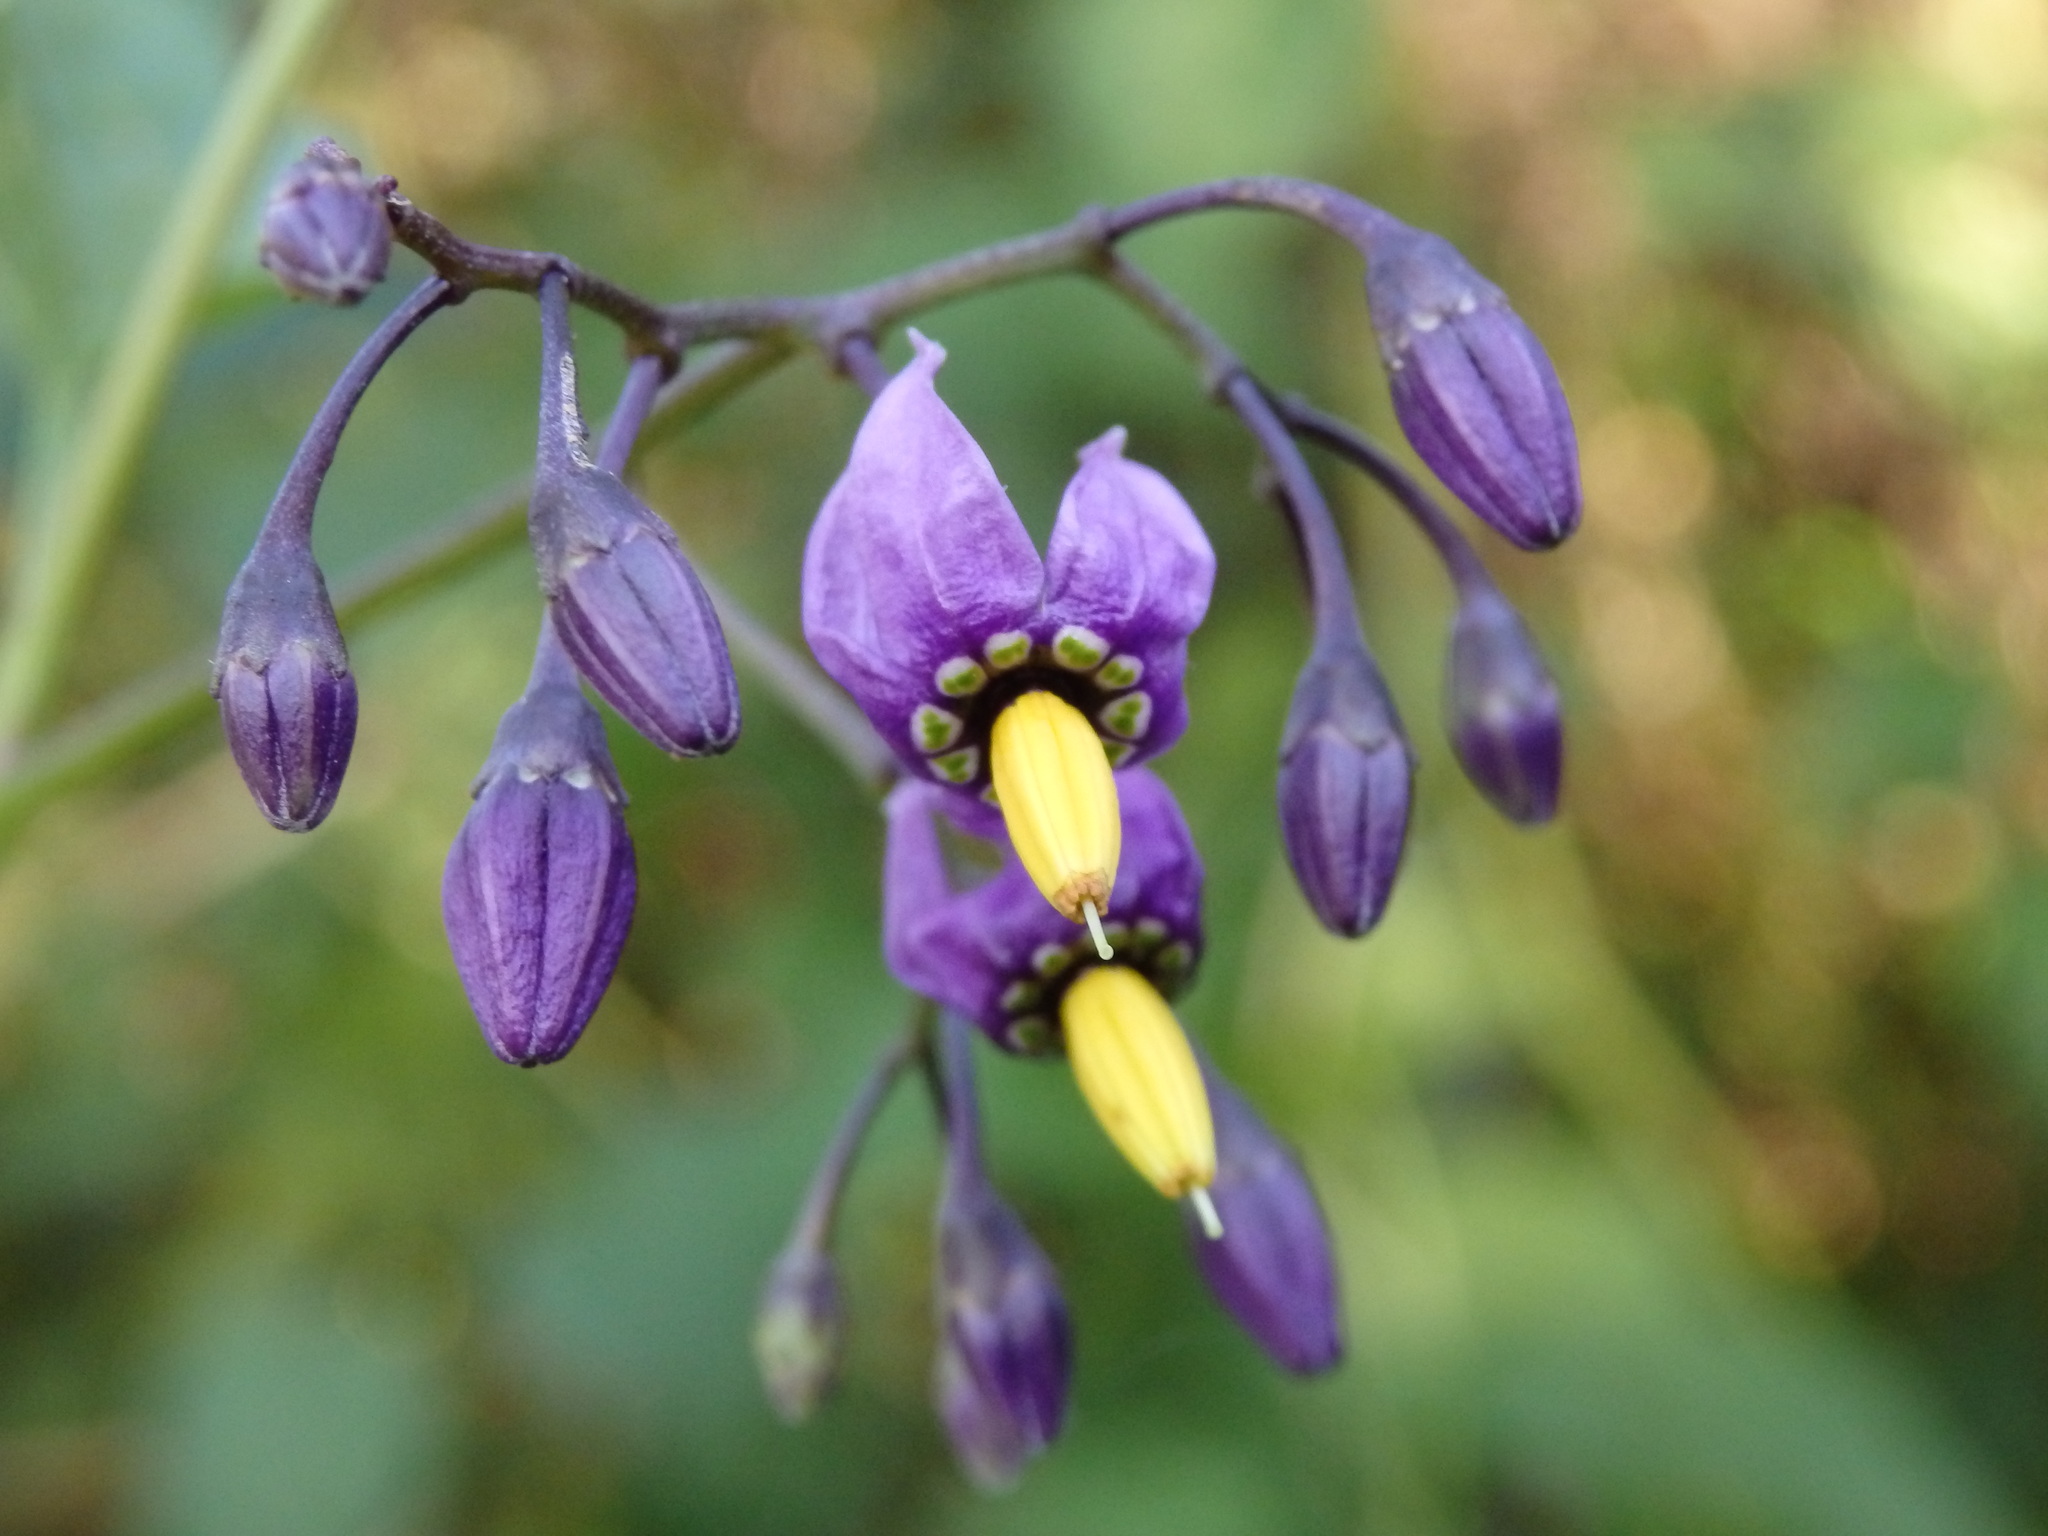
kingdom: Plantae
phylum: Tracheophyta
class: Magnoliopsida
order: Solanales
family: Solanaceae
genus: Solanum
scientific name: Solanum dulcamara
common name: Climbing nightshade
